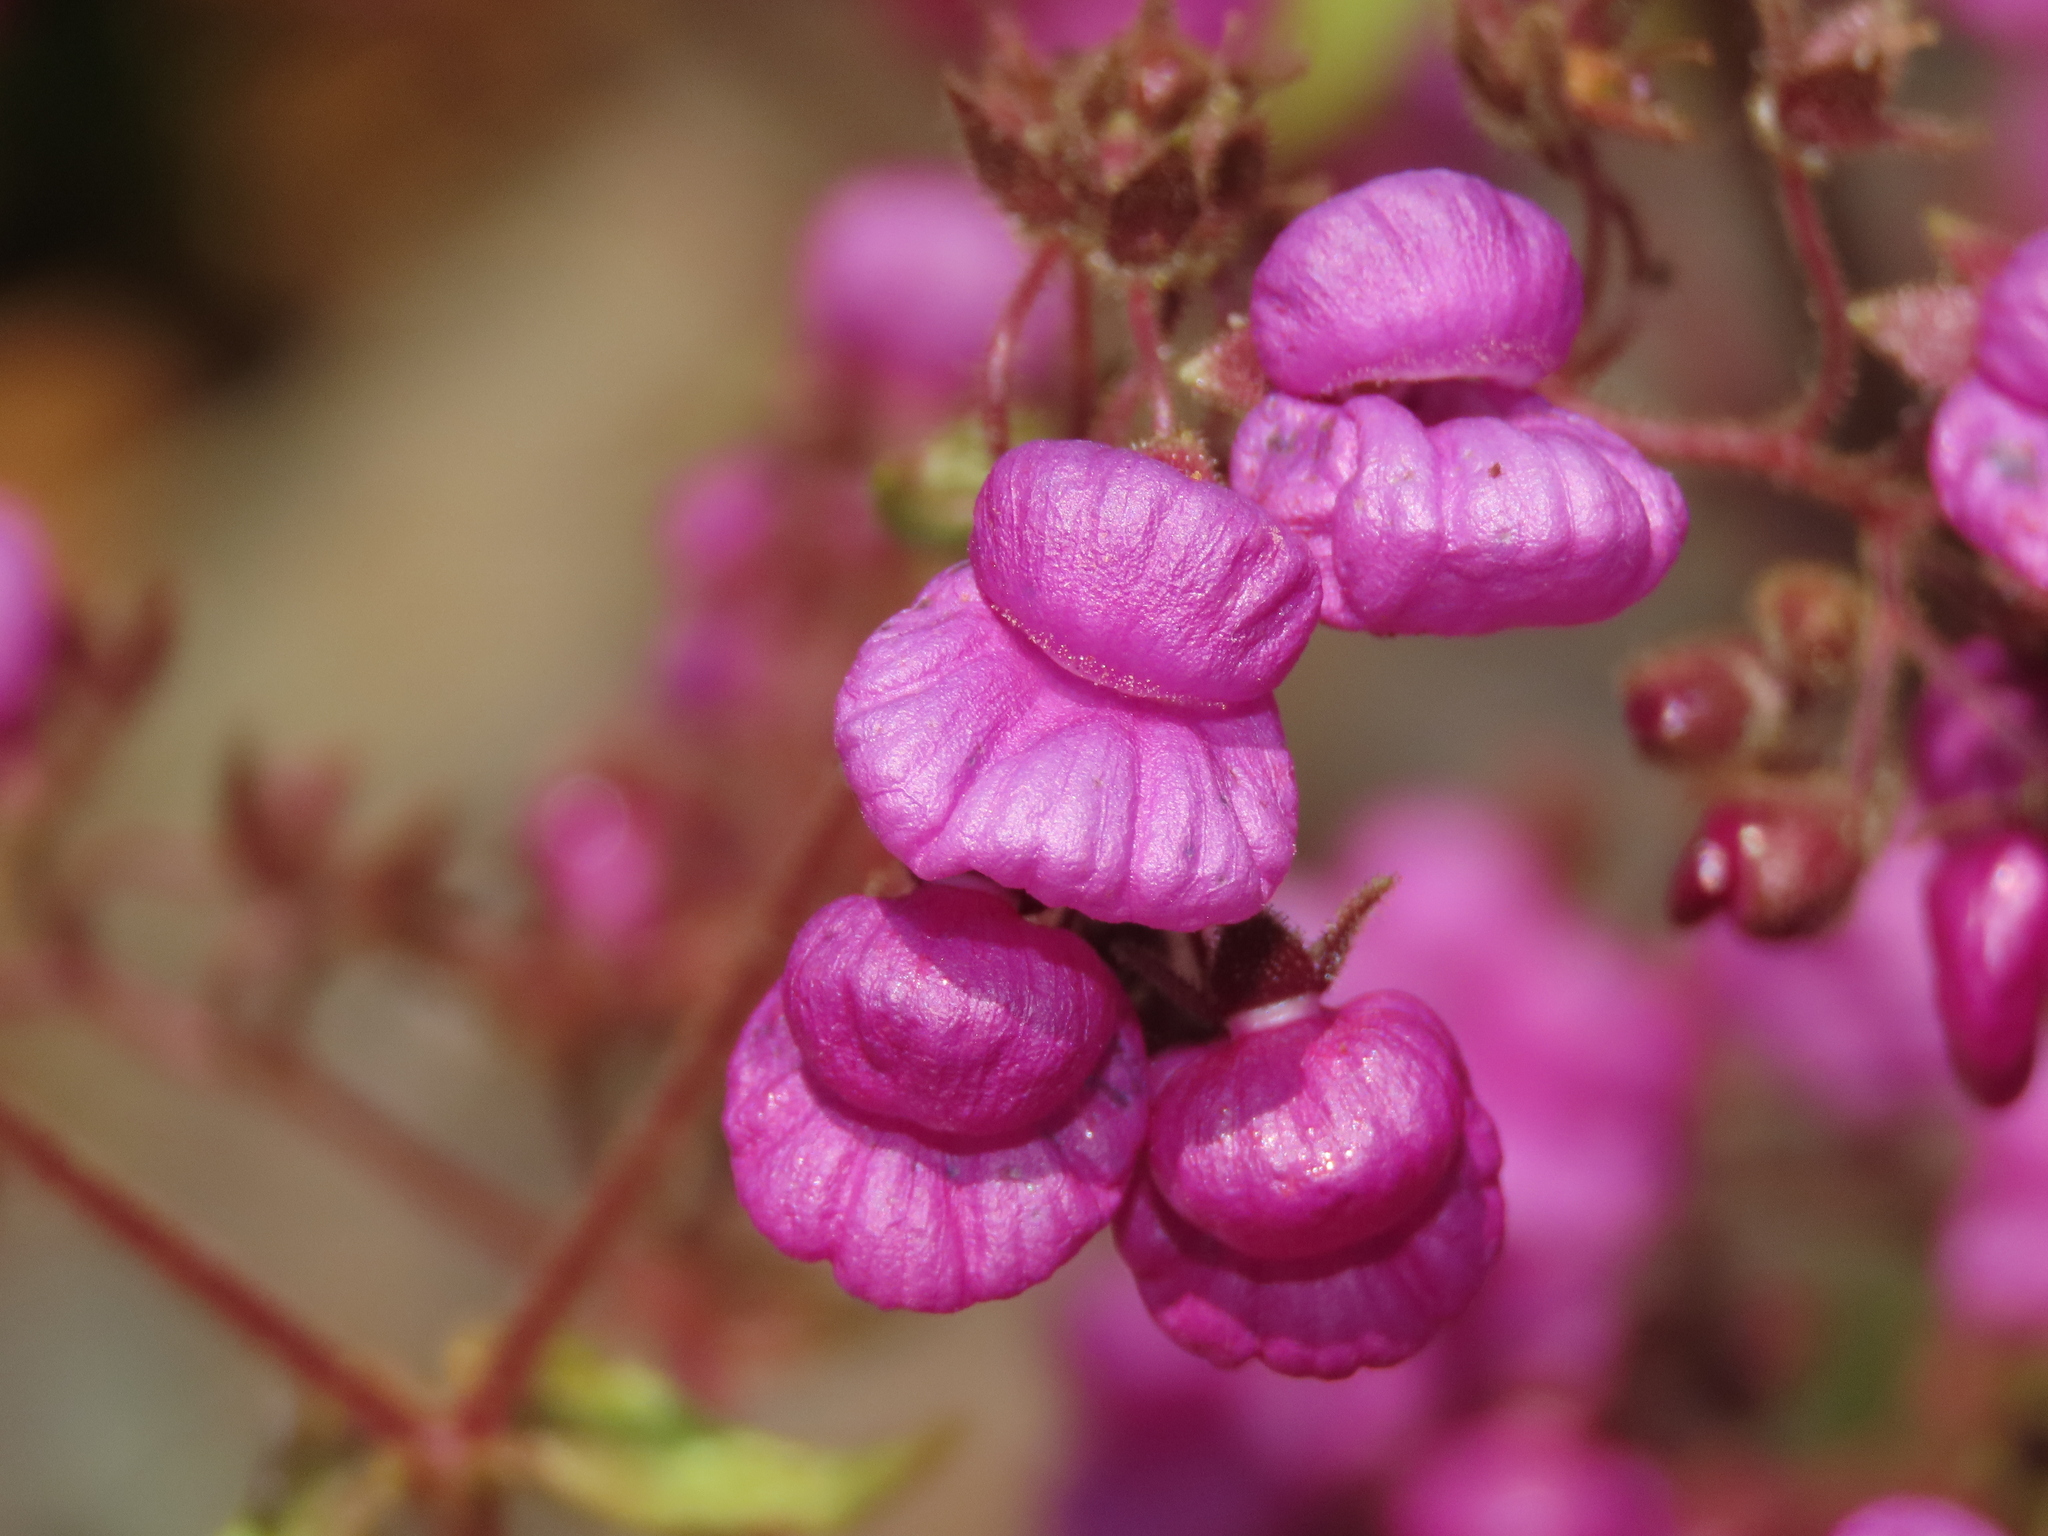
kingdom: Plantae
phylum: Tracheophyta
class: Magnoliopsida
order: Lamiales
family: Calceolariaceae
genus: Calceolaria
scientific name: Calceolaria purpurea
